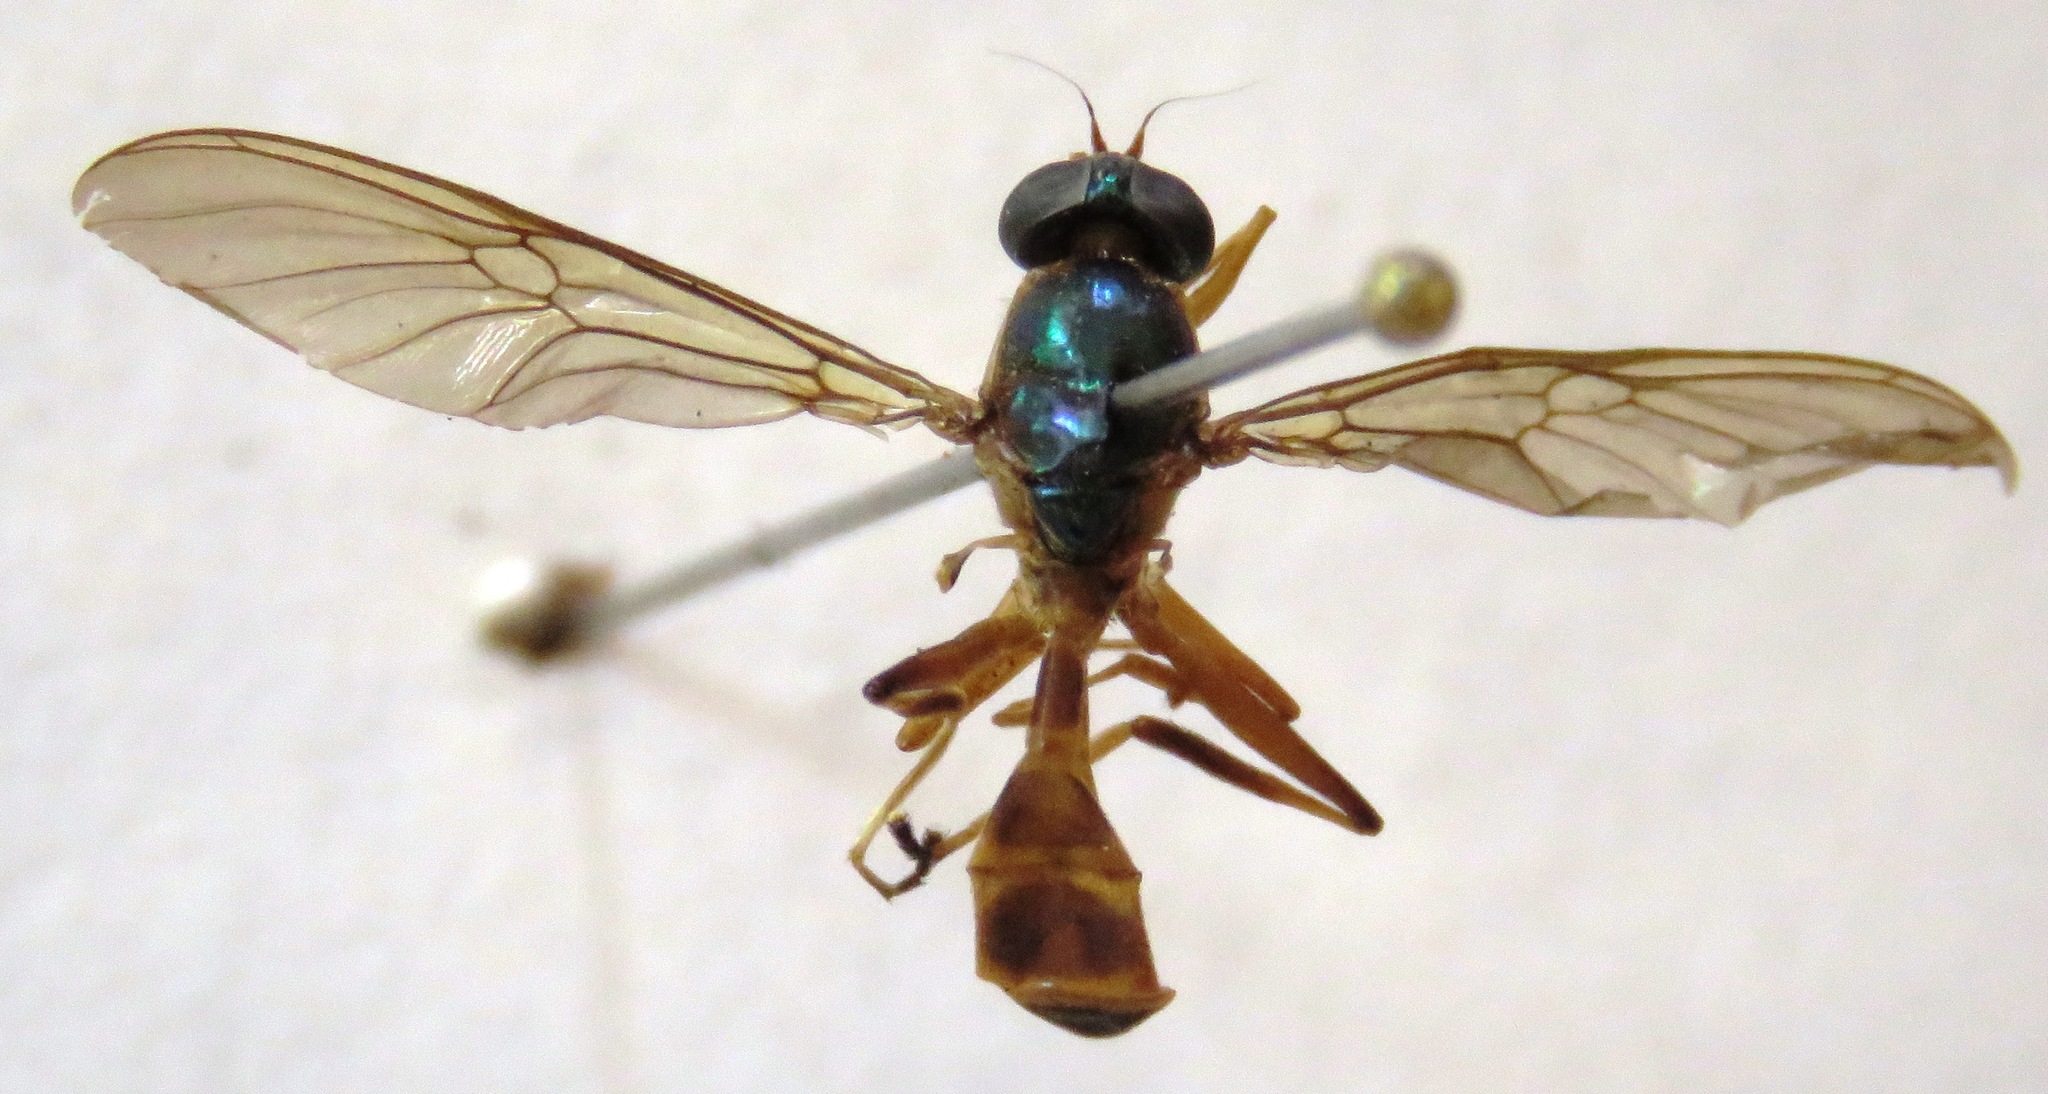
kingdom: Animalia
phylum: Arthropoda
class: Insecta
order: Diptera
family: Stratiomyidae
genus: Merosargus
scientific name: Merosargus bequaerti
